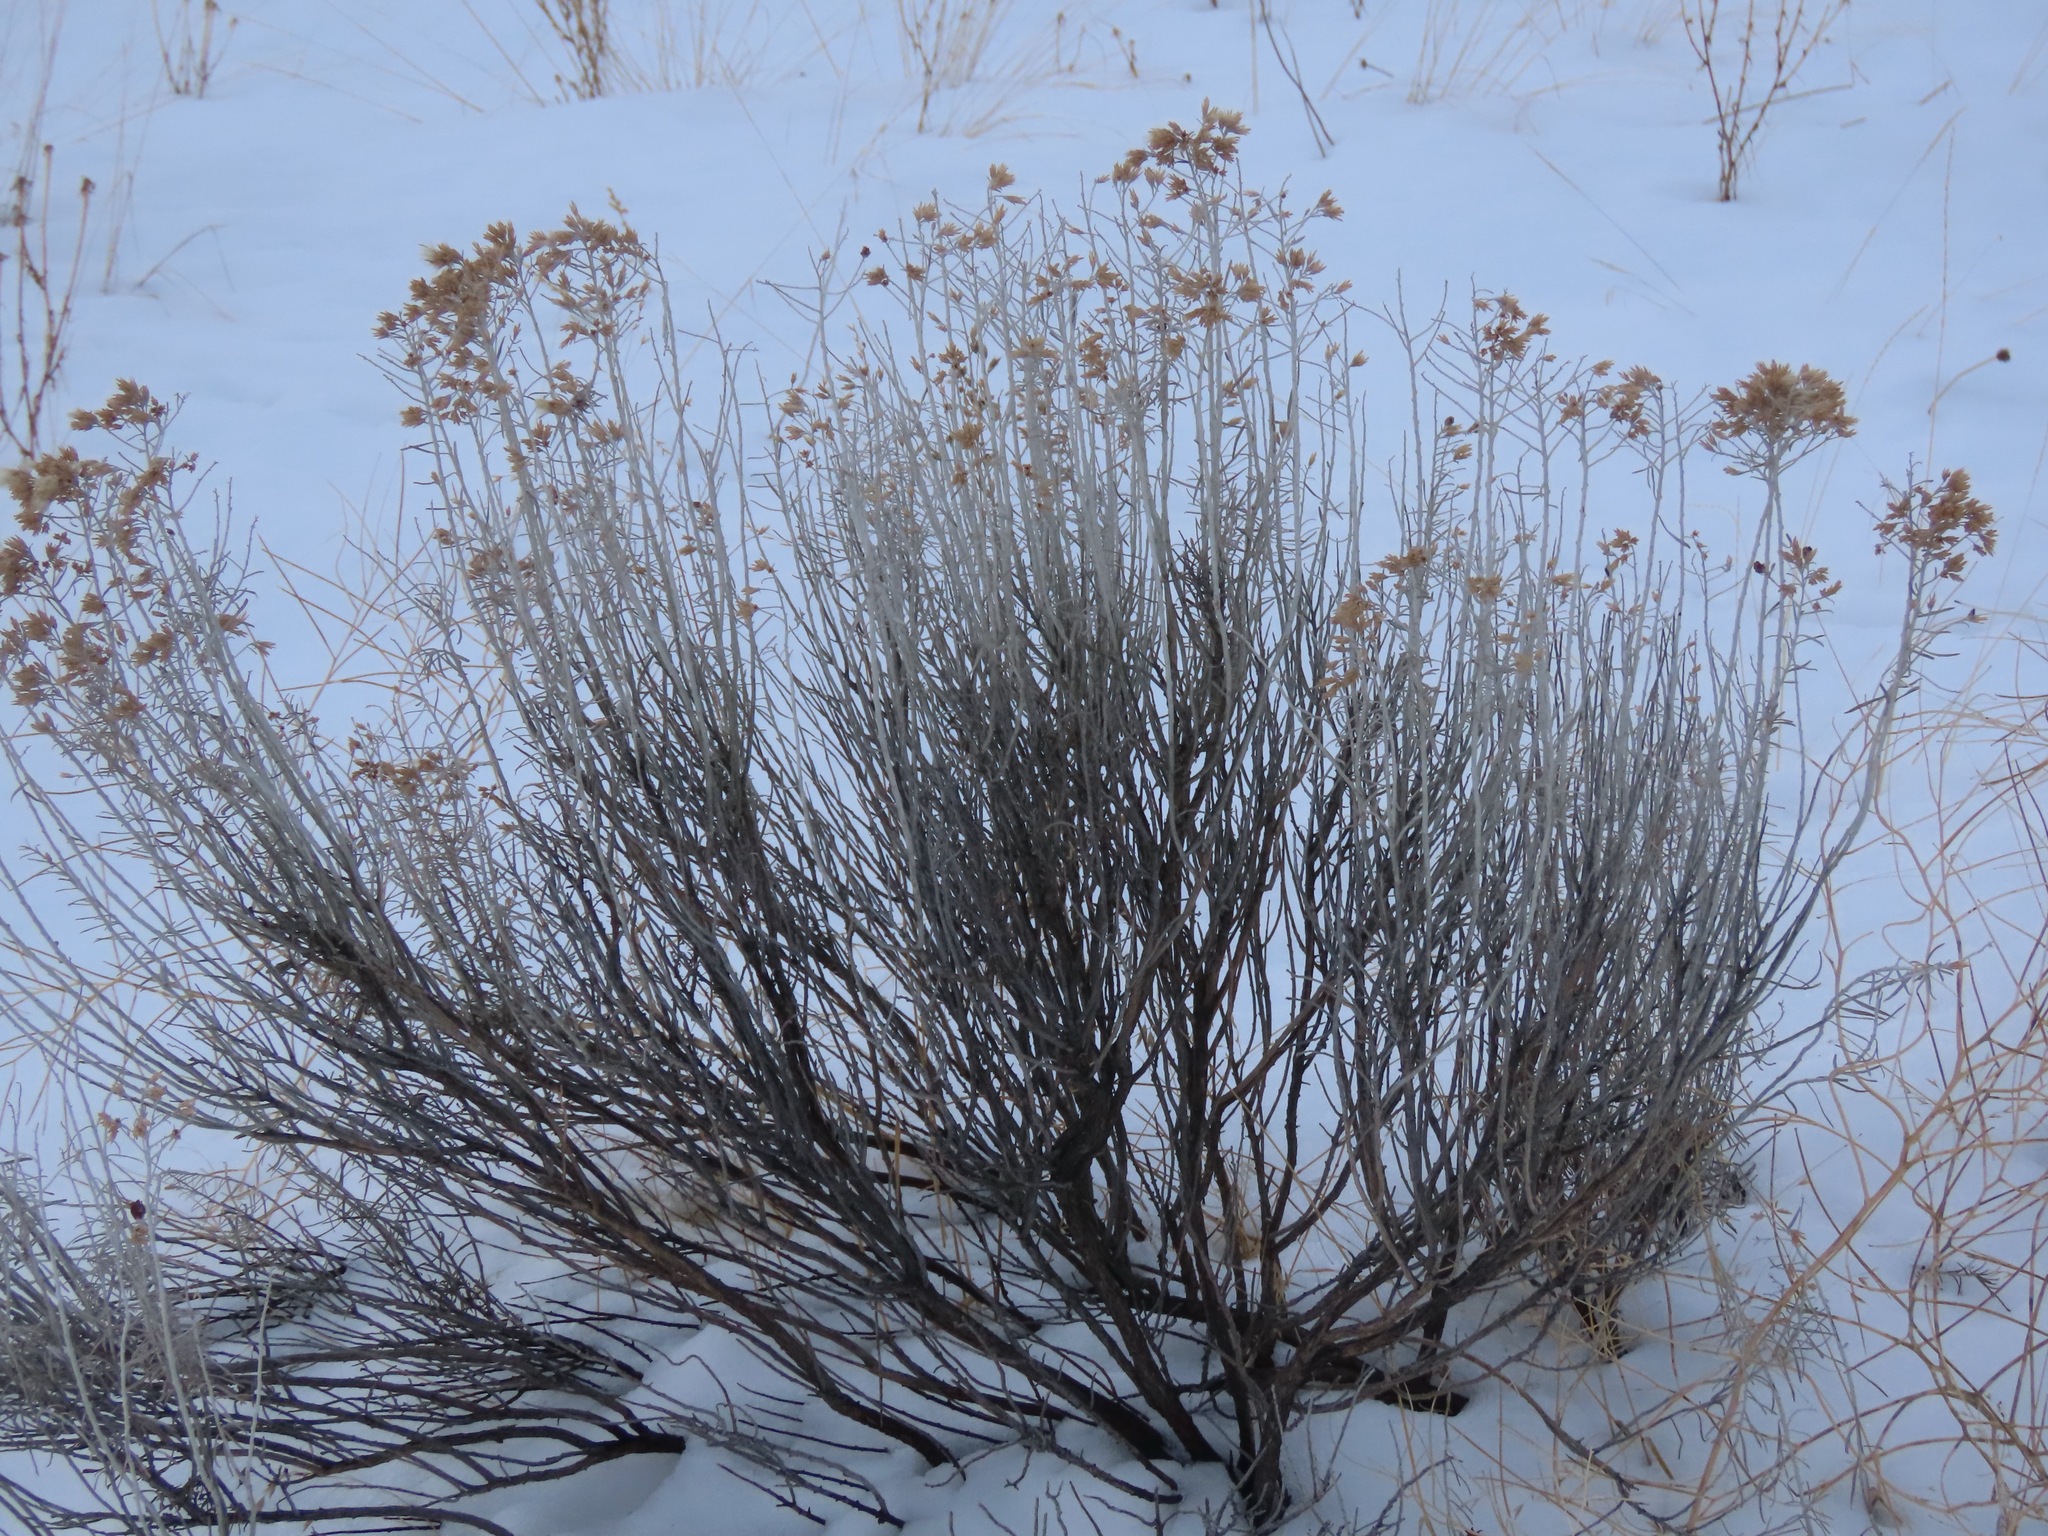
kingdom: Plantae
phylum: Tracheophyta
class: Magnoliopsida
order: Asterales
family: Asteraceae
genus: Ericameria
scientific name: Ericameria nauseosa
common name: Rubber rabbitbrush
